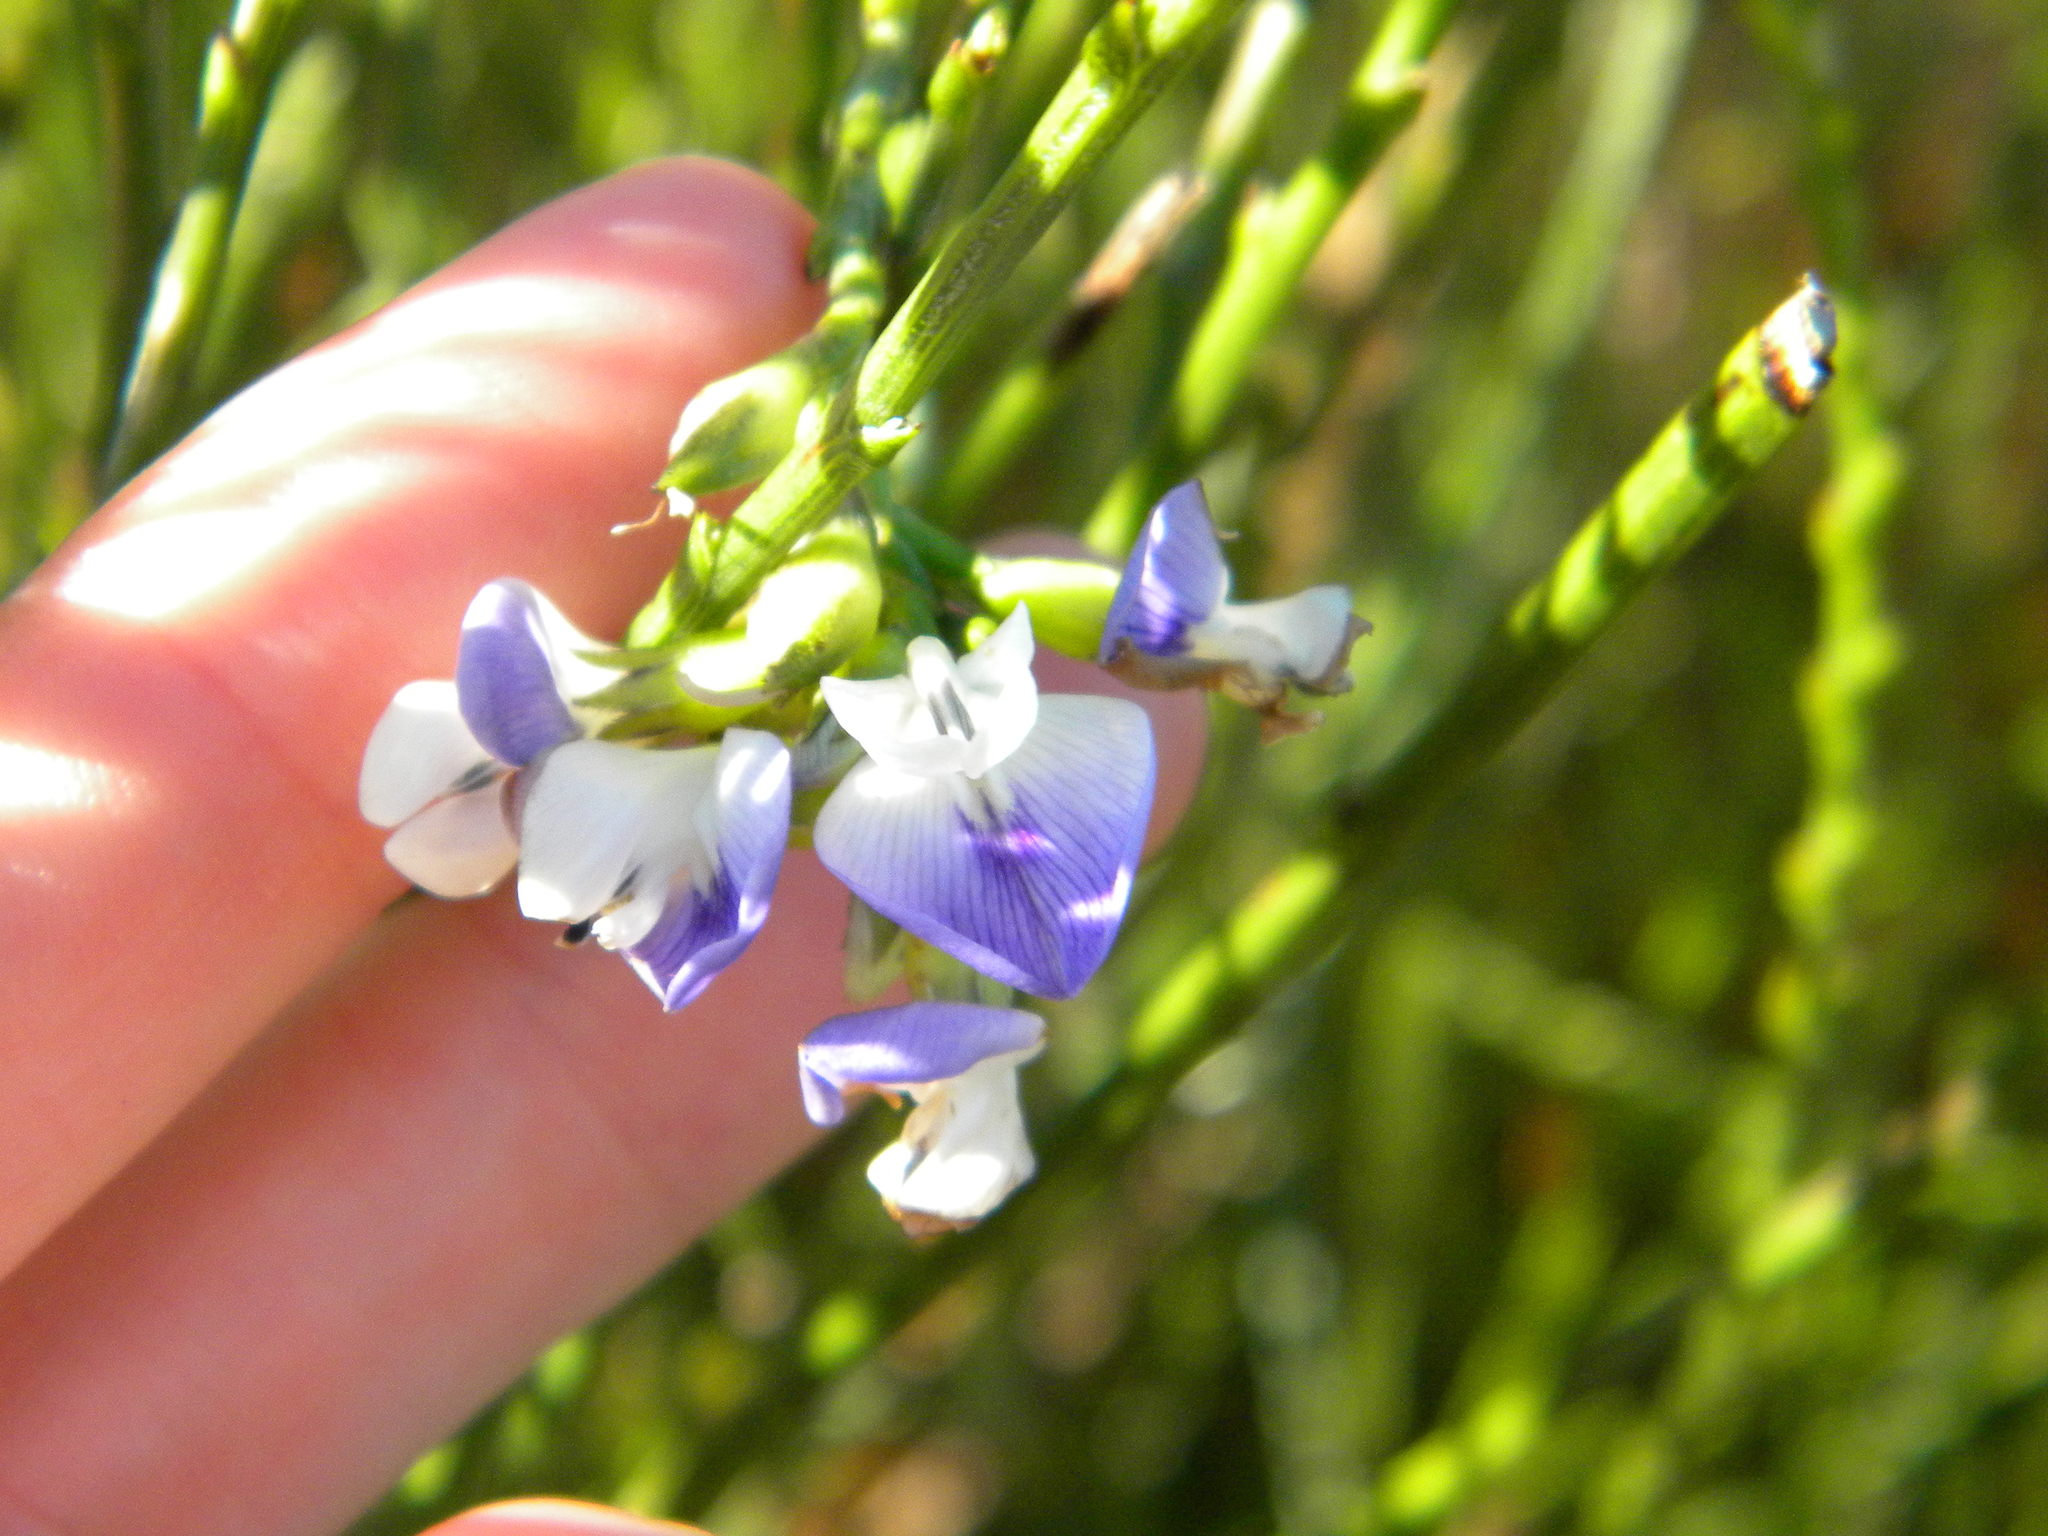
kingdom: Plantae
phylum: Tracheophyta
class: Magnoliopsida
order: Fabales
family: Fabaceae
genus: Psoralea
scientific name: Psoralea aphylla
